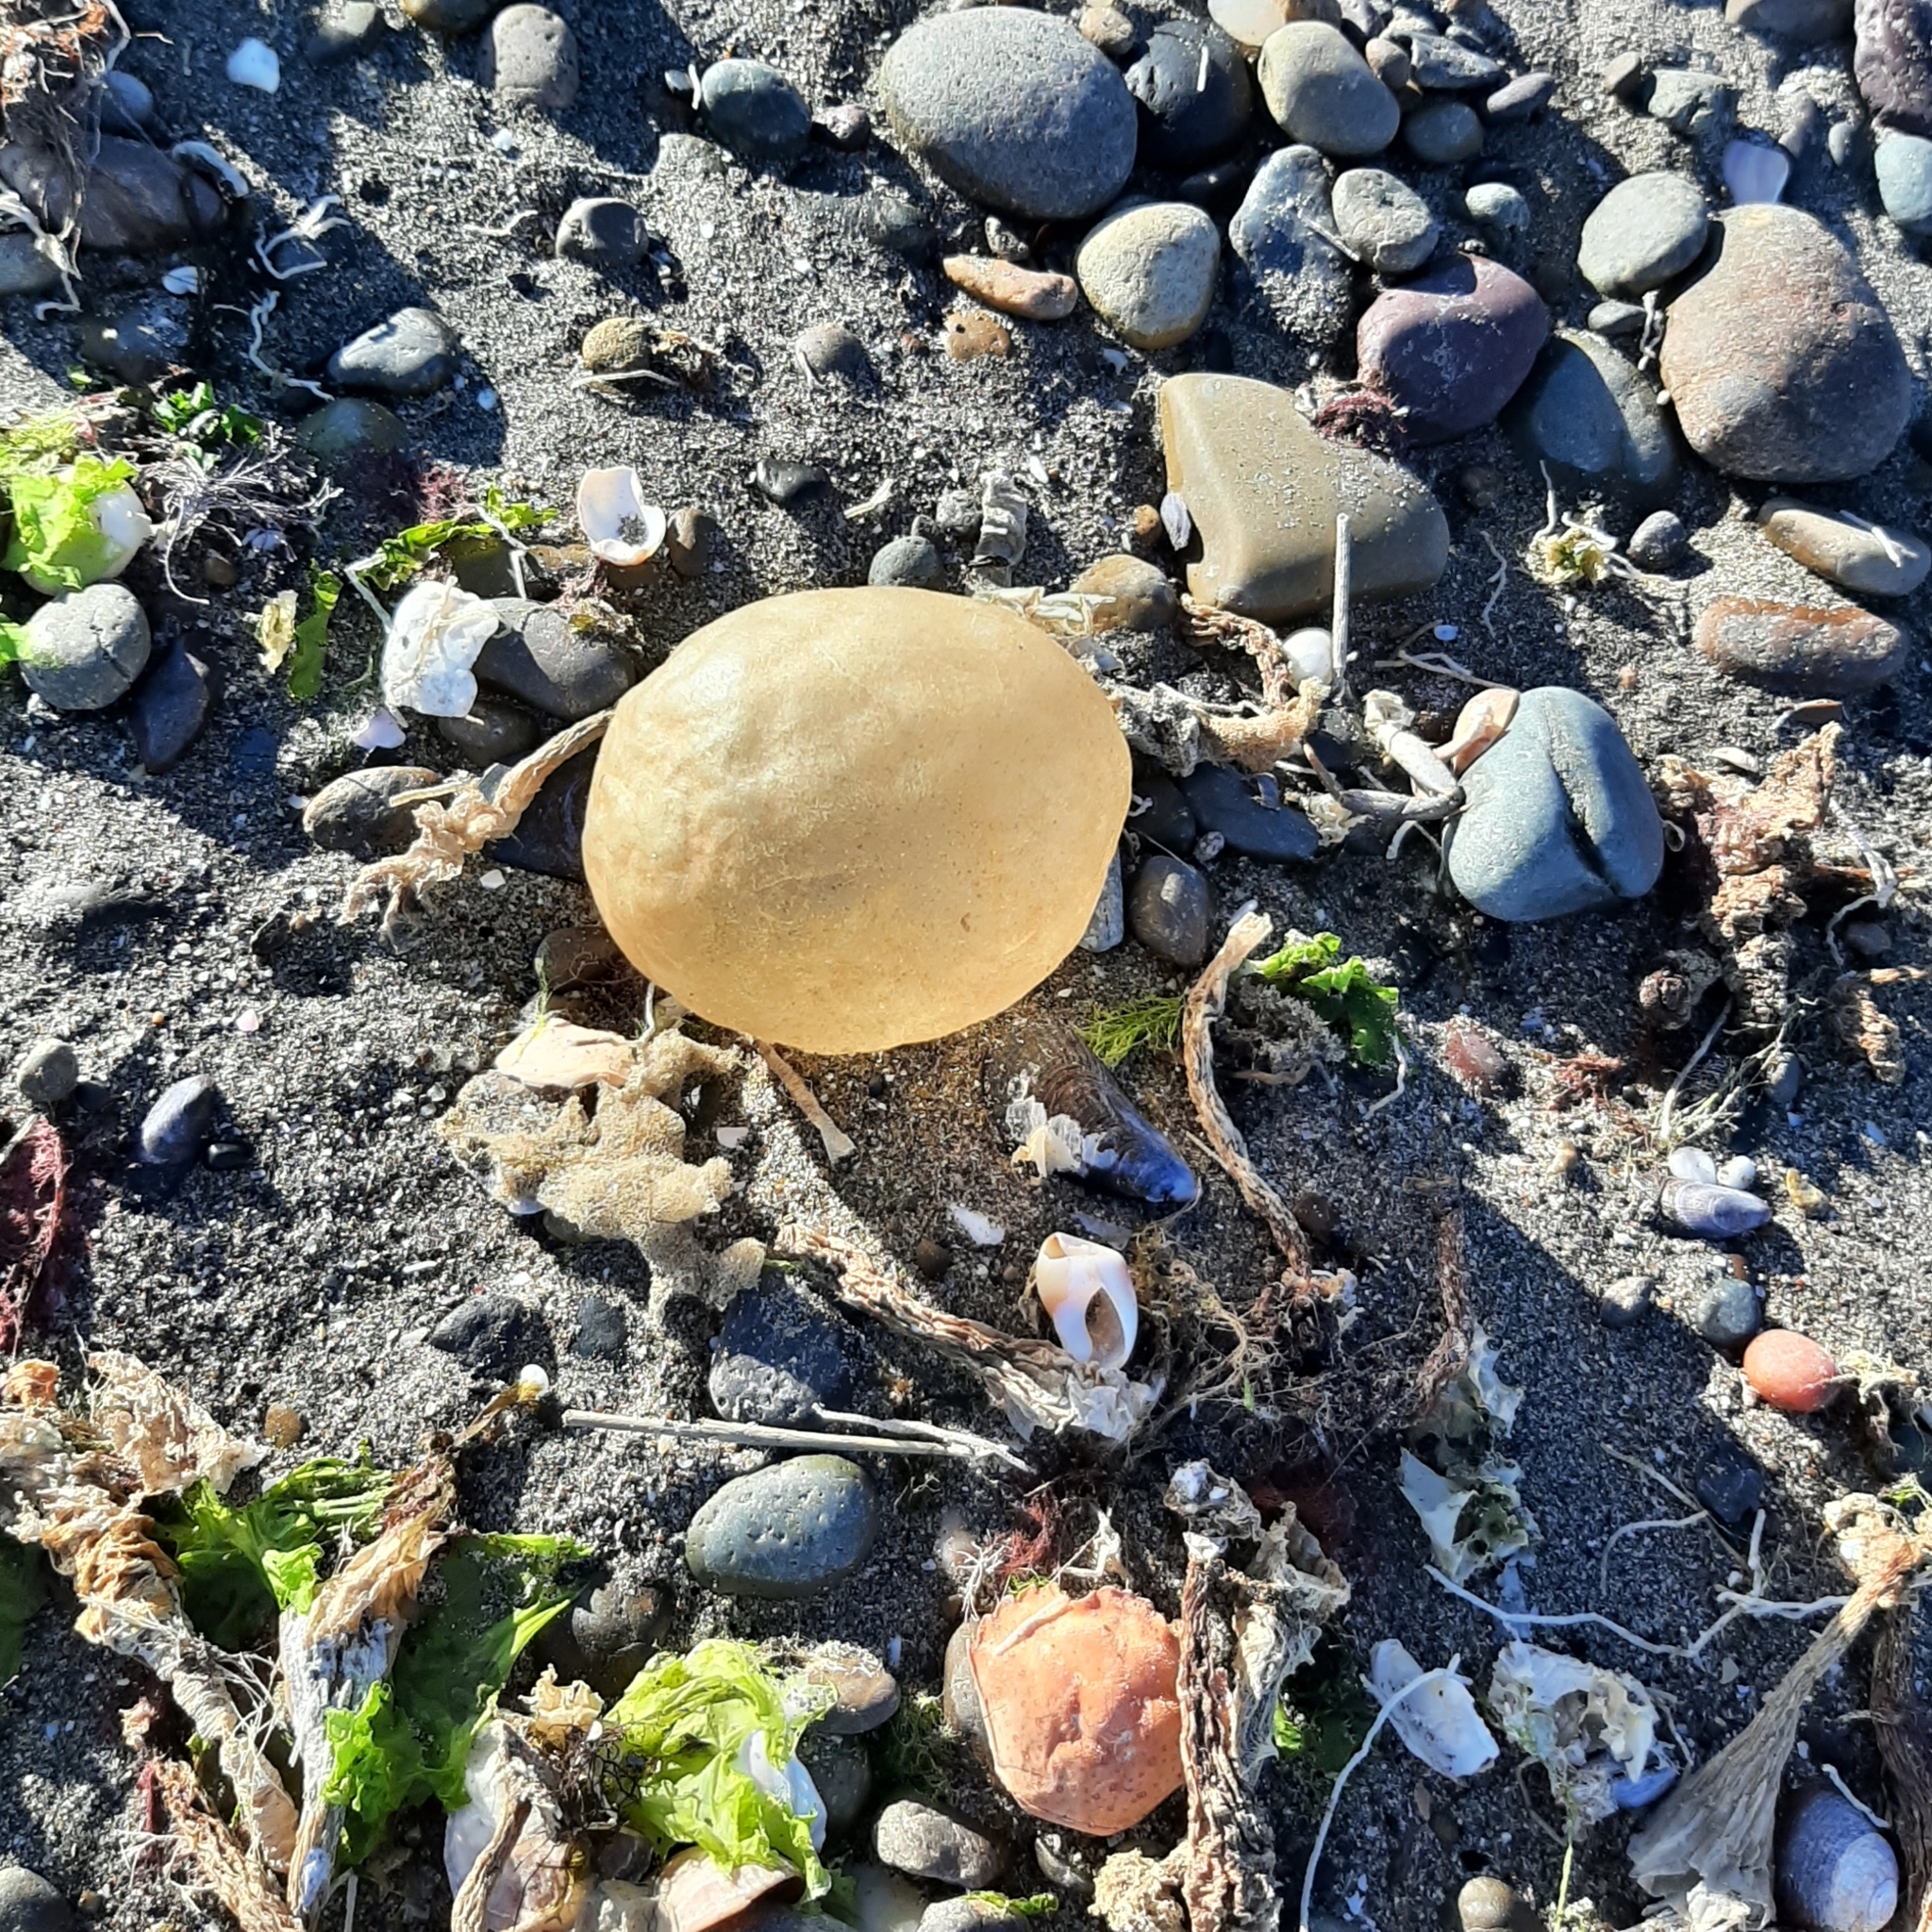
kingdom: Animalia
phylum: Mollusca
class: Gastropoda
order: Neogastropoda
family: Volutidae
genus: Pachycymbiola
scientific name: Pachycymbiola brasiliana
